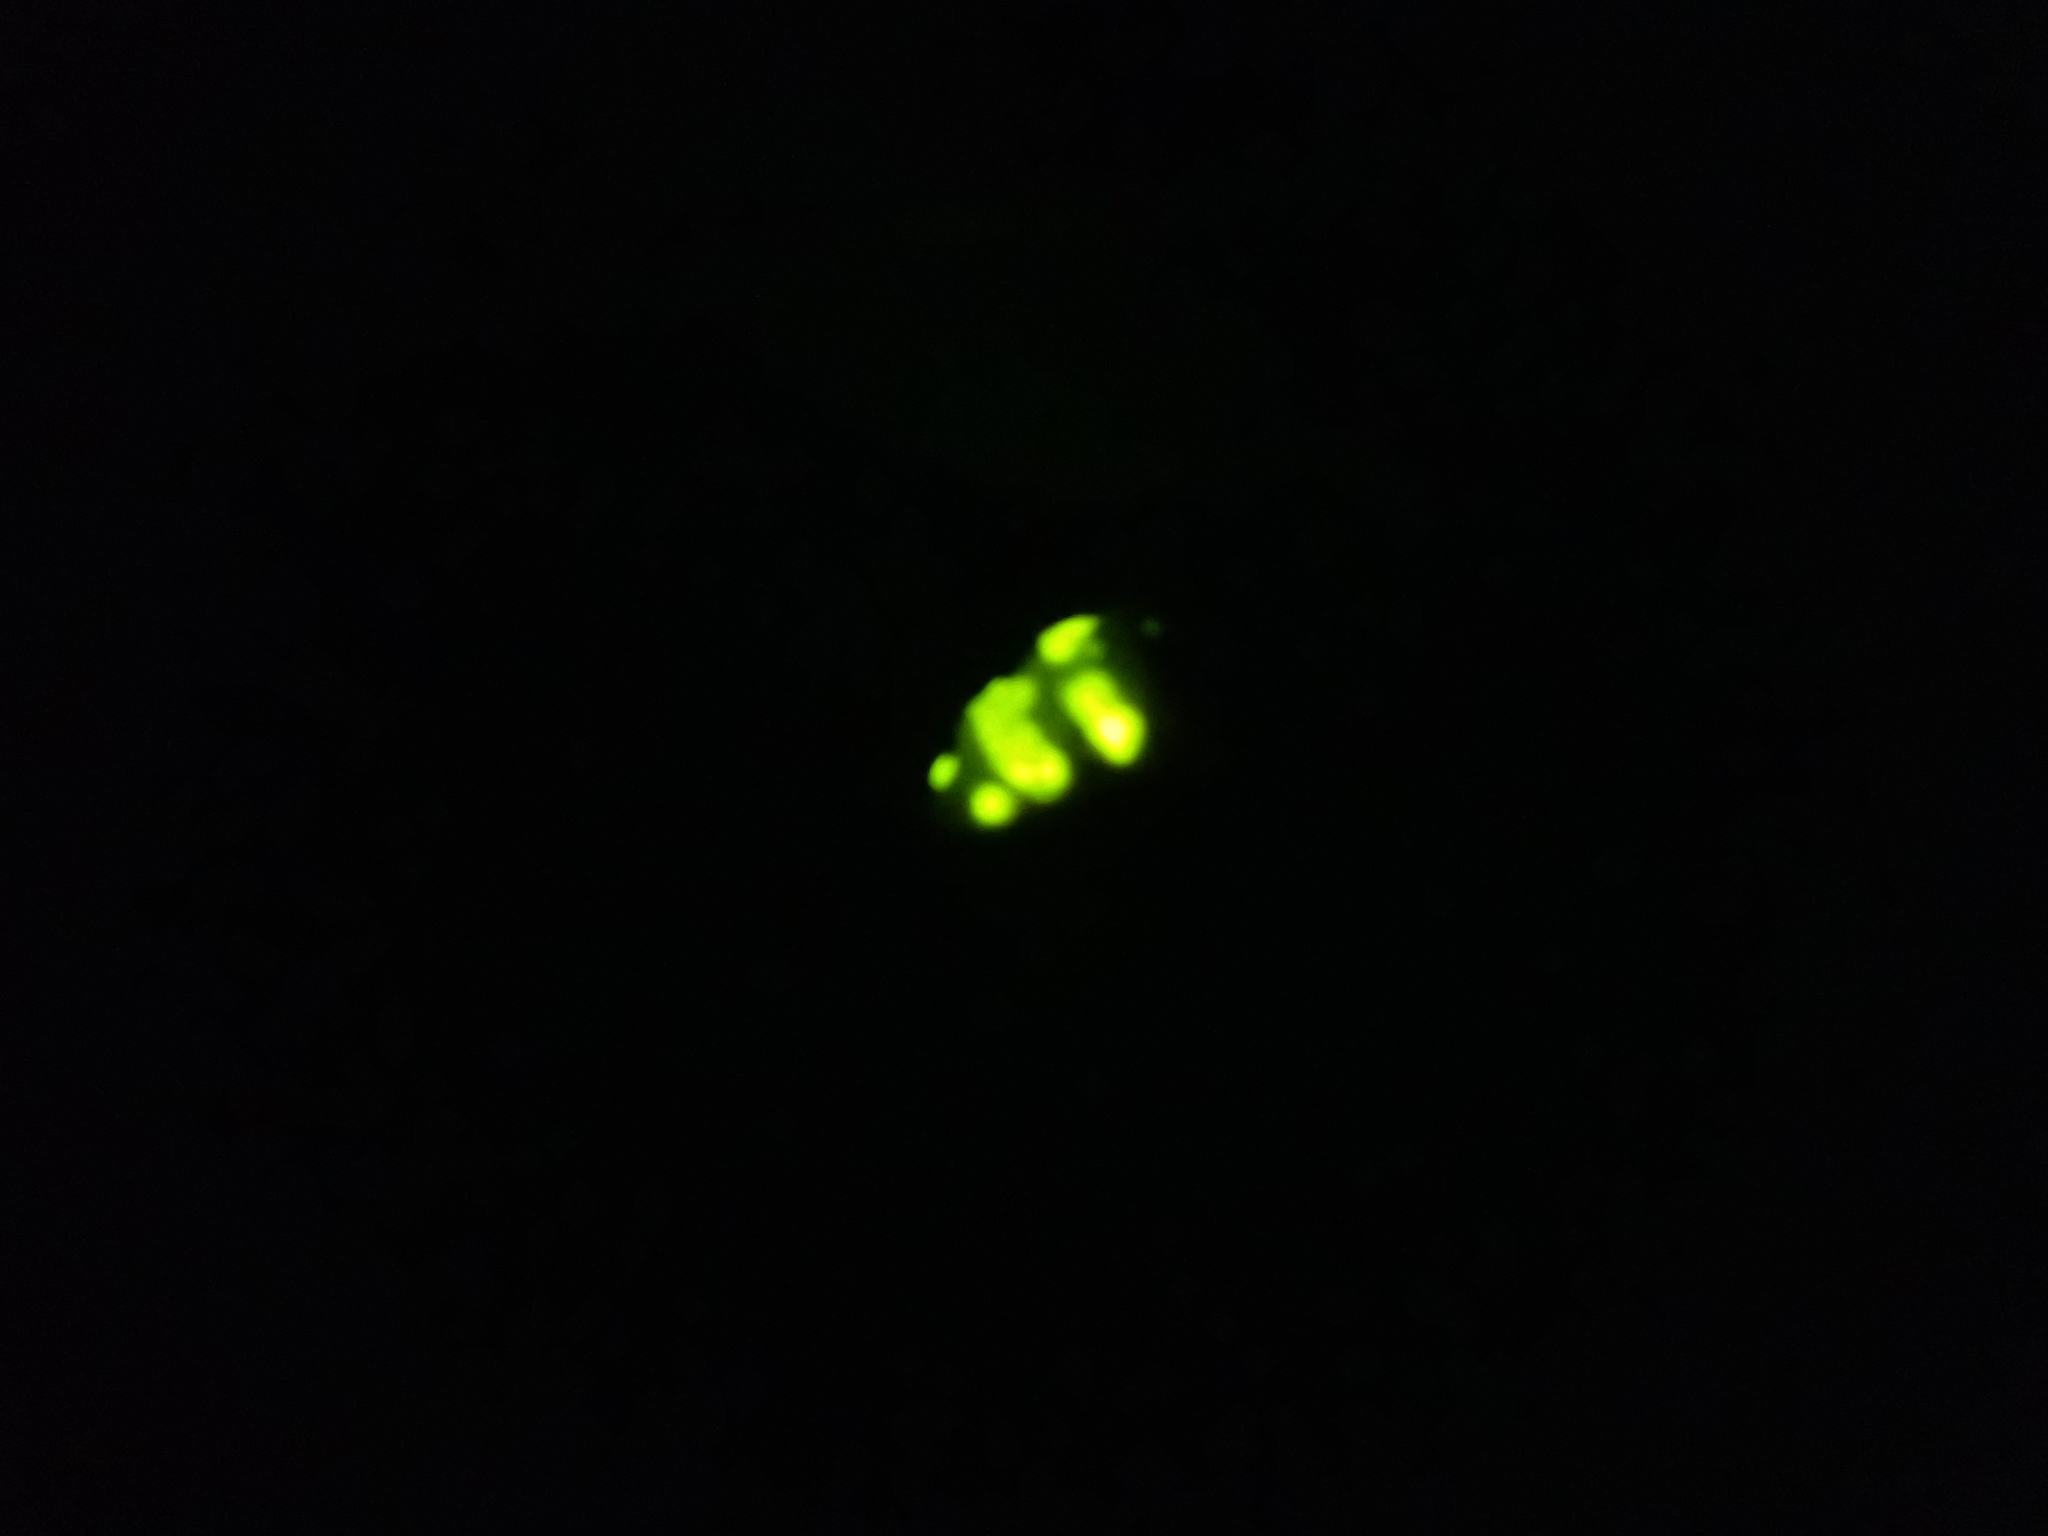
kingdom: Animalia
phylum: Arthropoda
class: Insecta
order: Coleoptera
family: Lampyridae
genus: Lampyris
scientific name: Lampyris noctiluca
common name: Glow-worm
